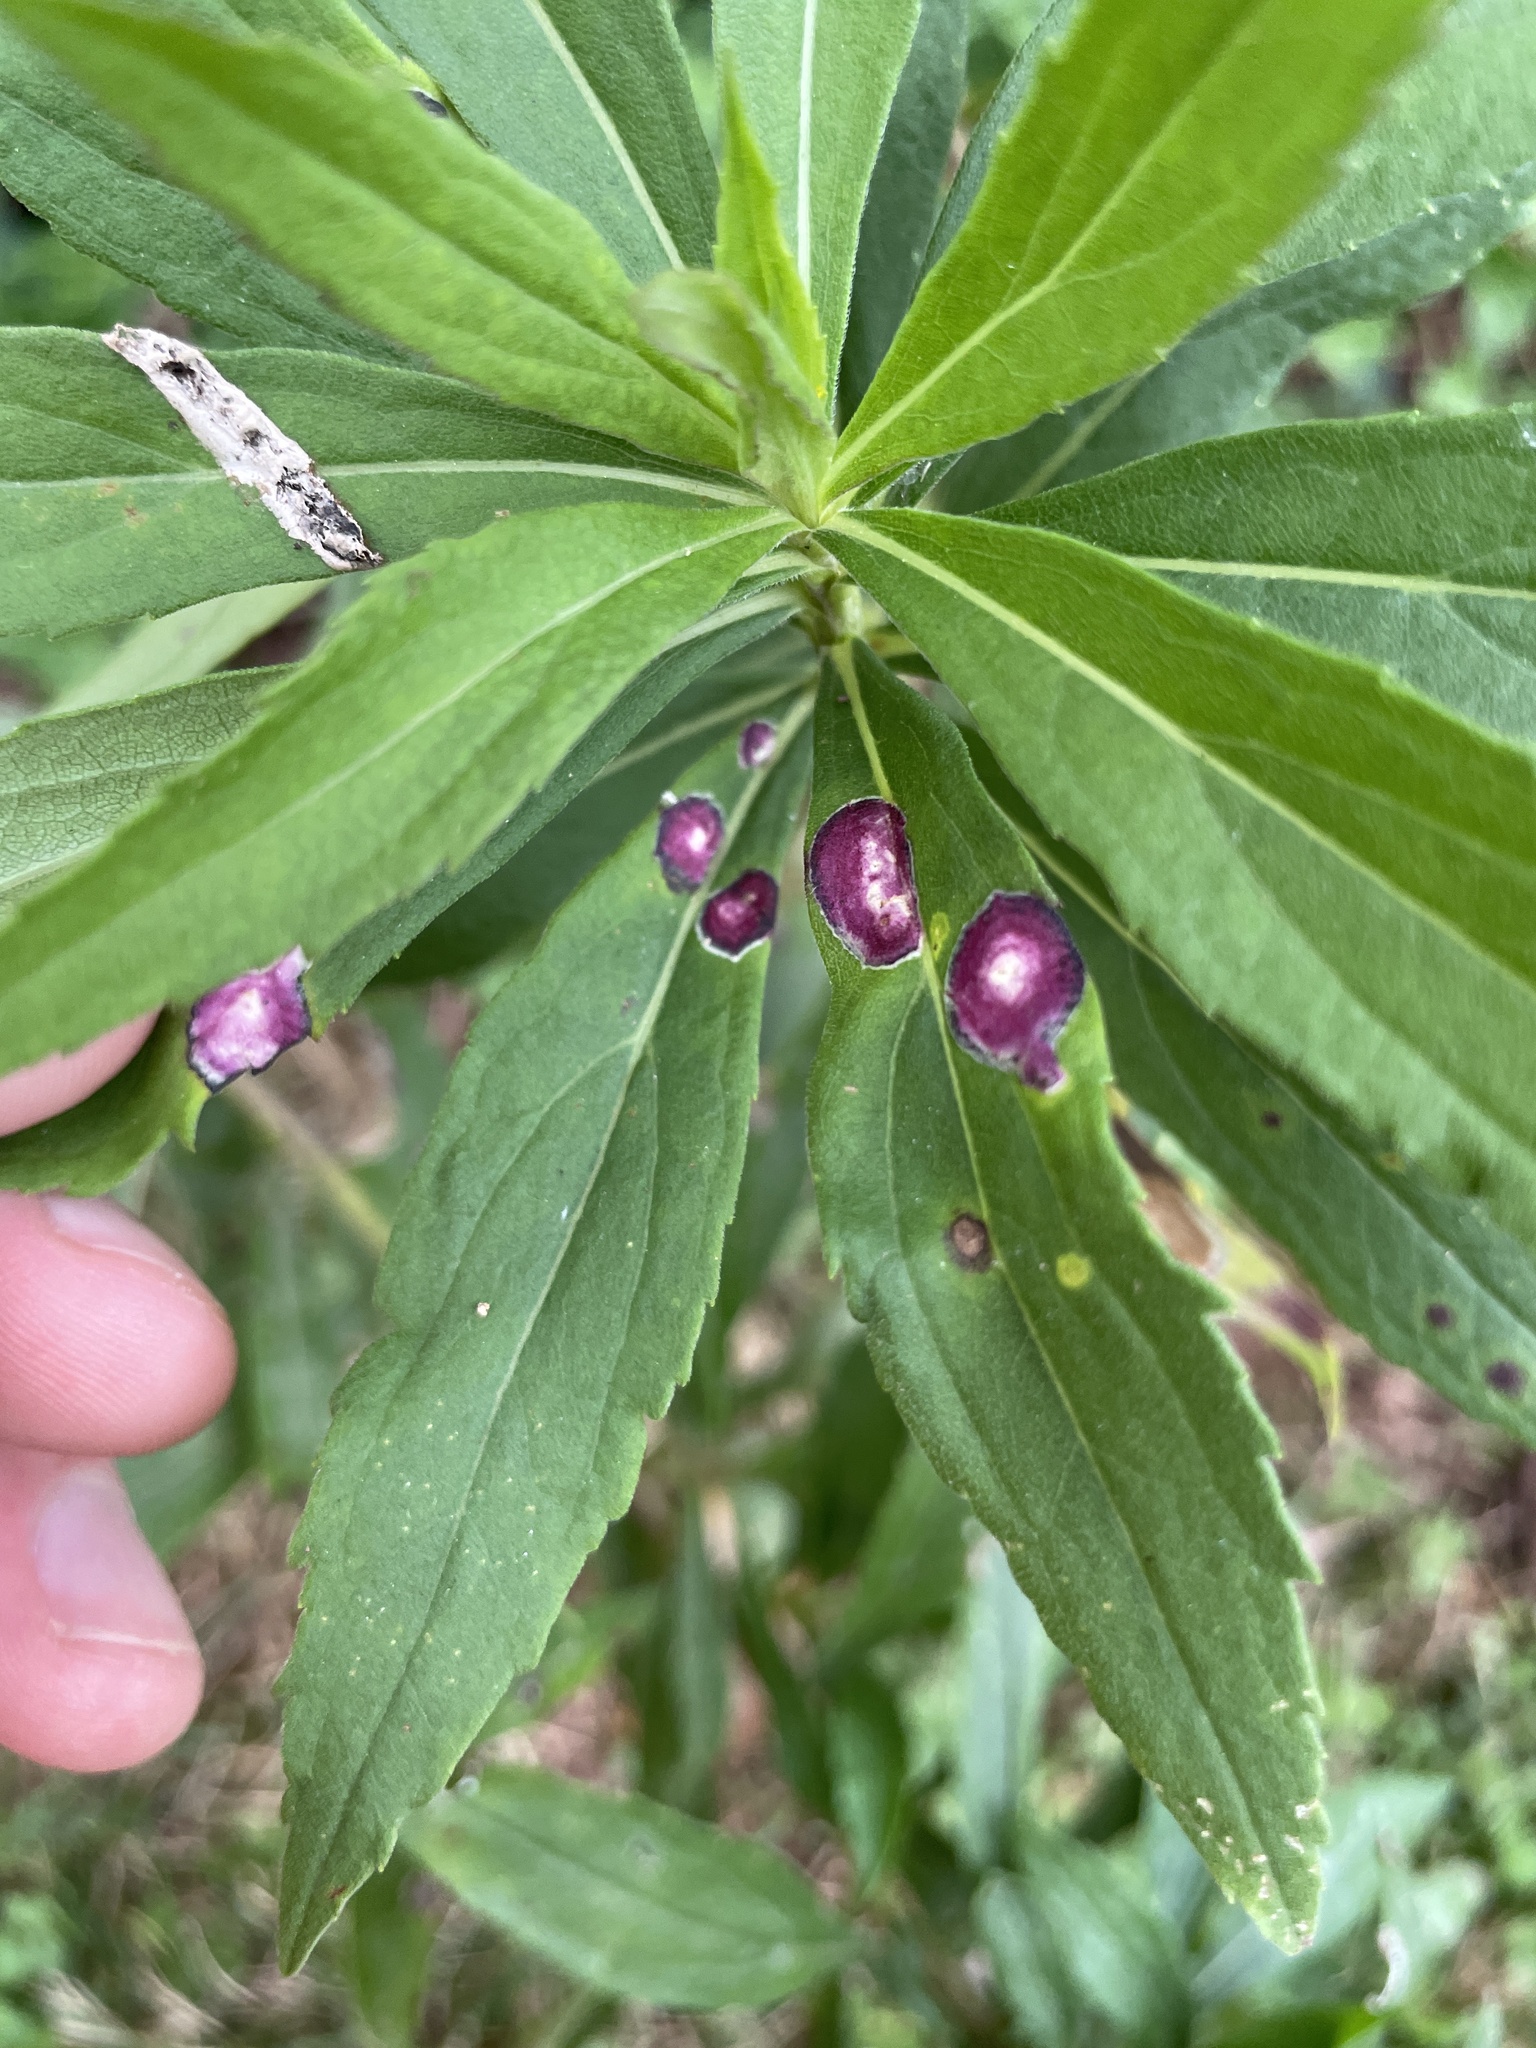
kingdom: Animalia
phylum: Arthropoda
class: Insecta
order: Diptera
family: Cecidomyiidae
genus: Asteromyia
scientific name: Asteromyia carbonifera
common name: Carbonifera goldenrod gall midge
